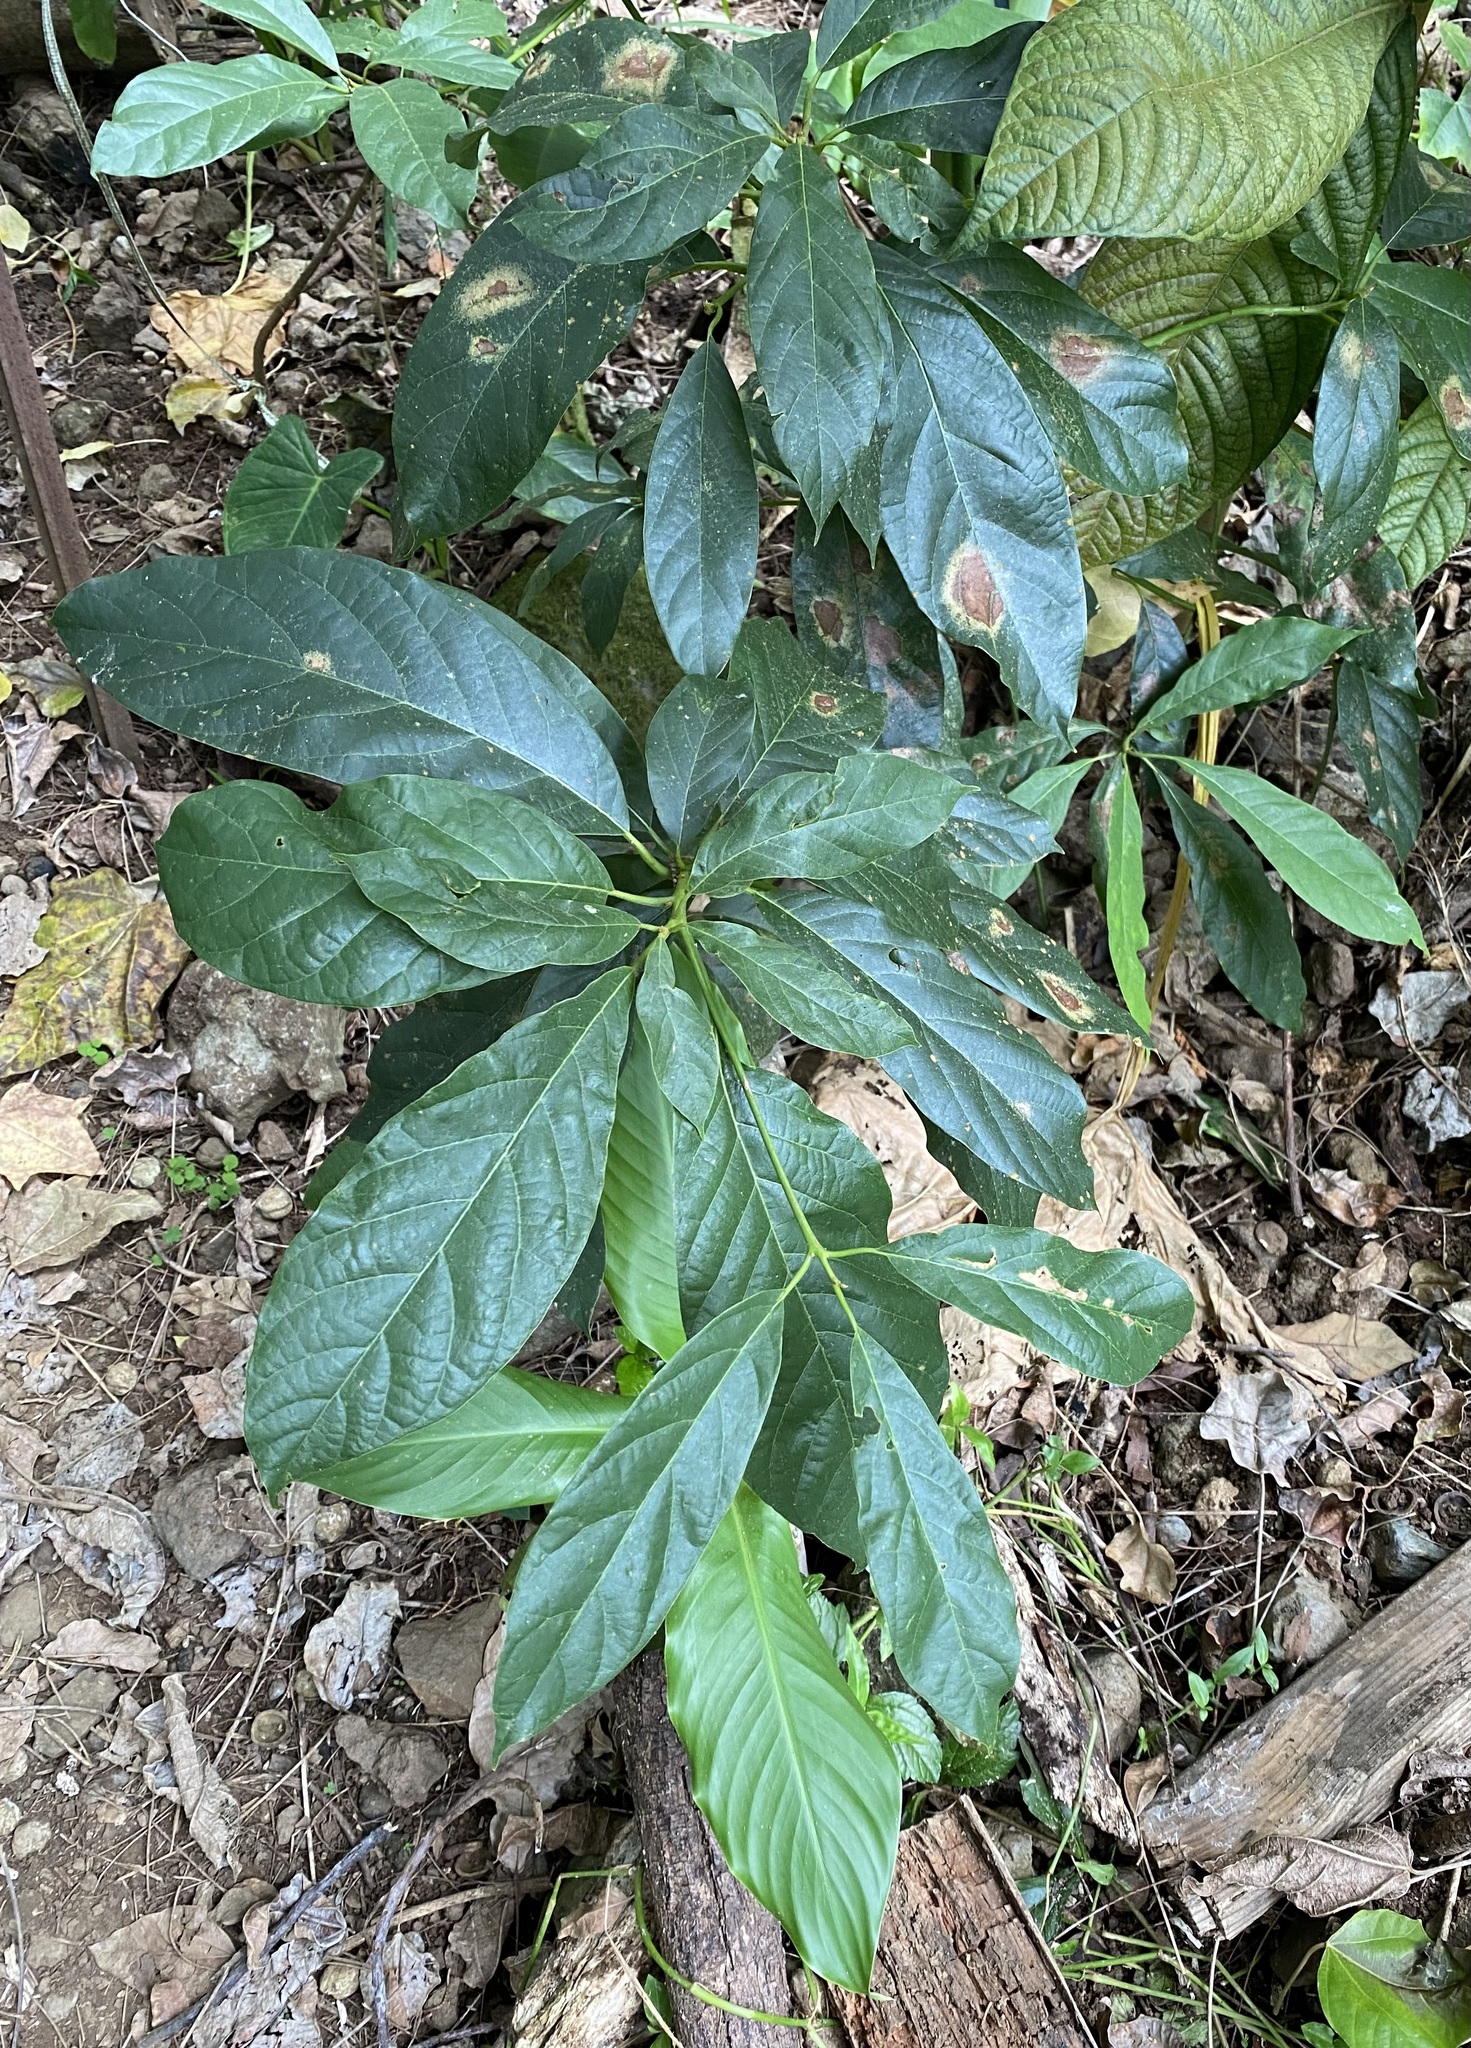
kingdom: Plantae
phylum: Tracheophyta
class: Magnoliopsida
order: Laurales
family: Lauraceae
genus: Persea
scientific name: Persea americana
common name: Avocado
